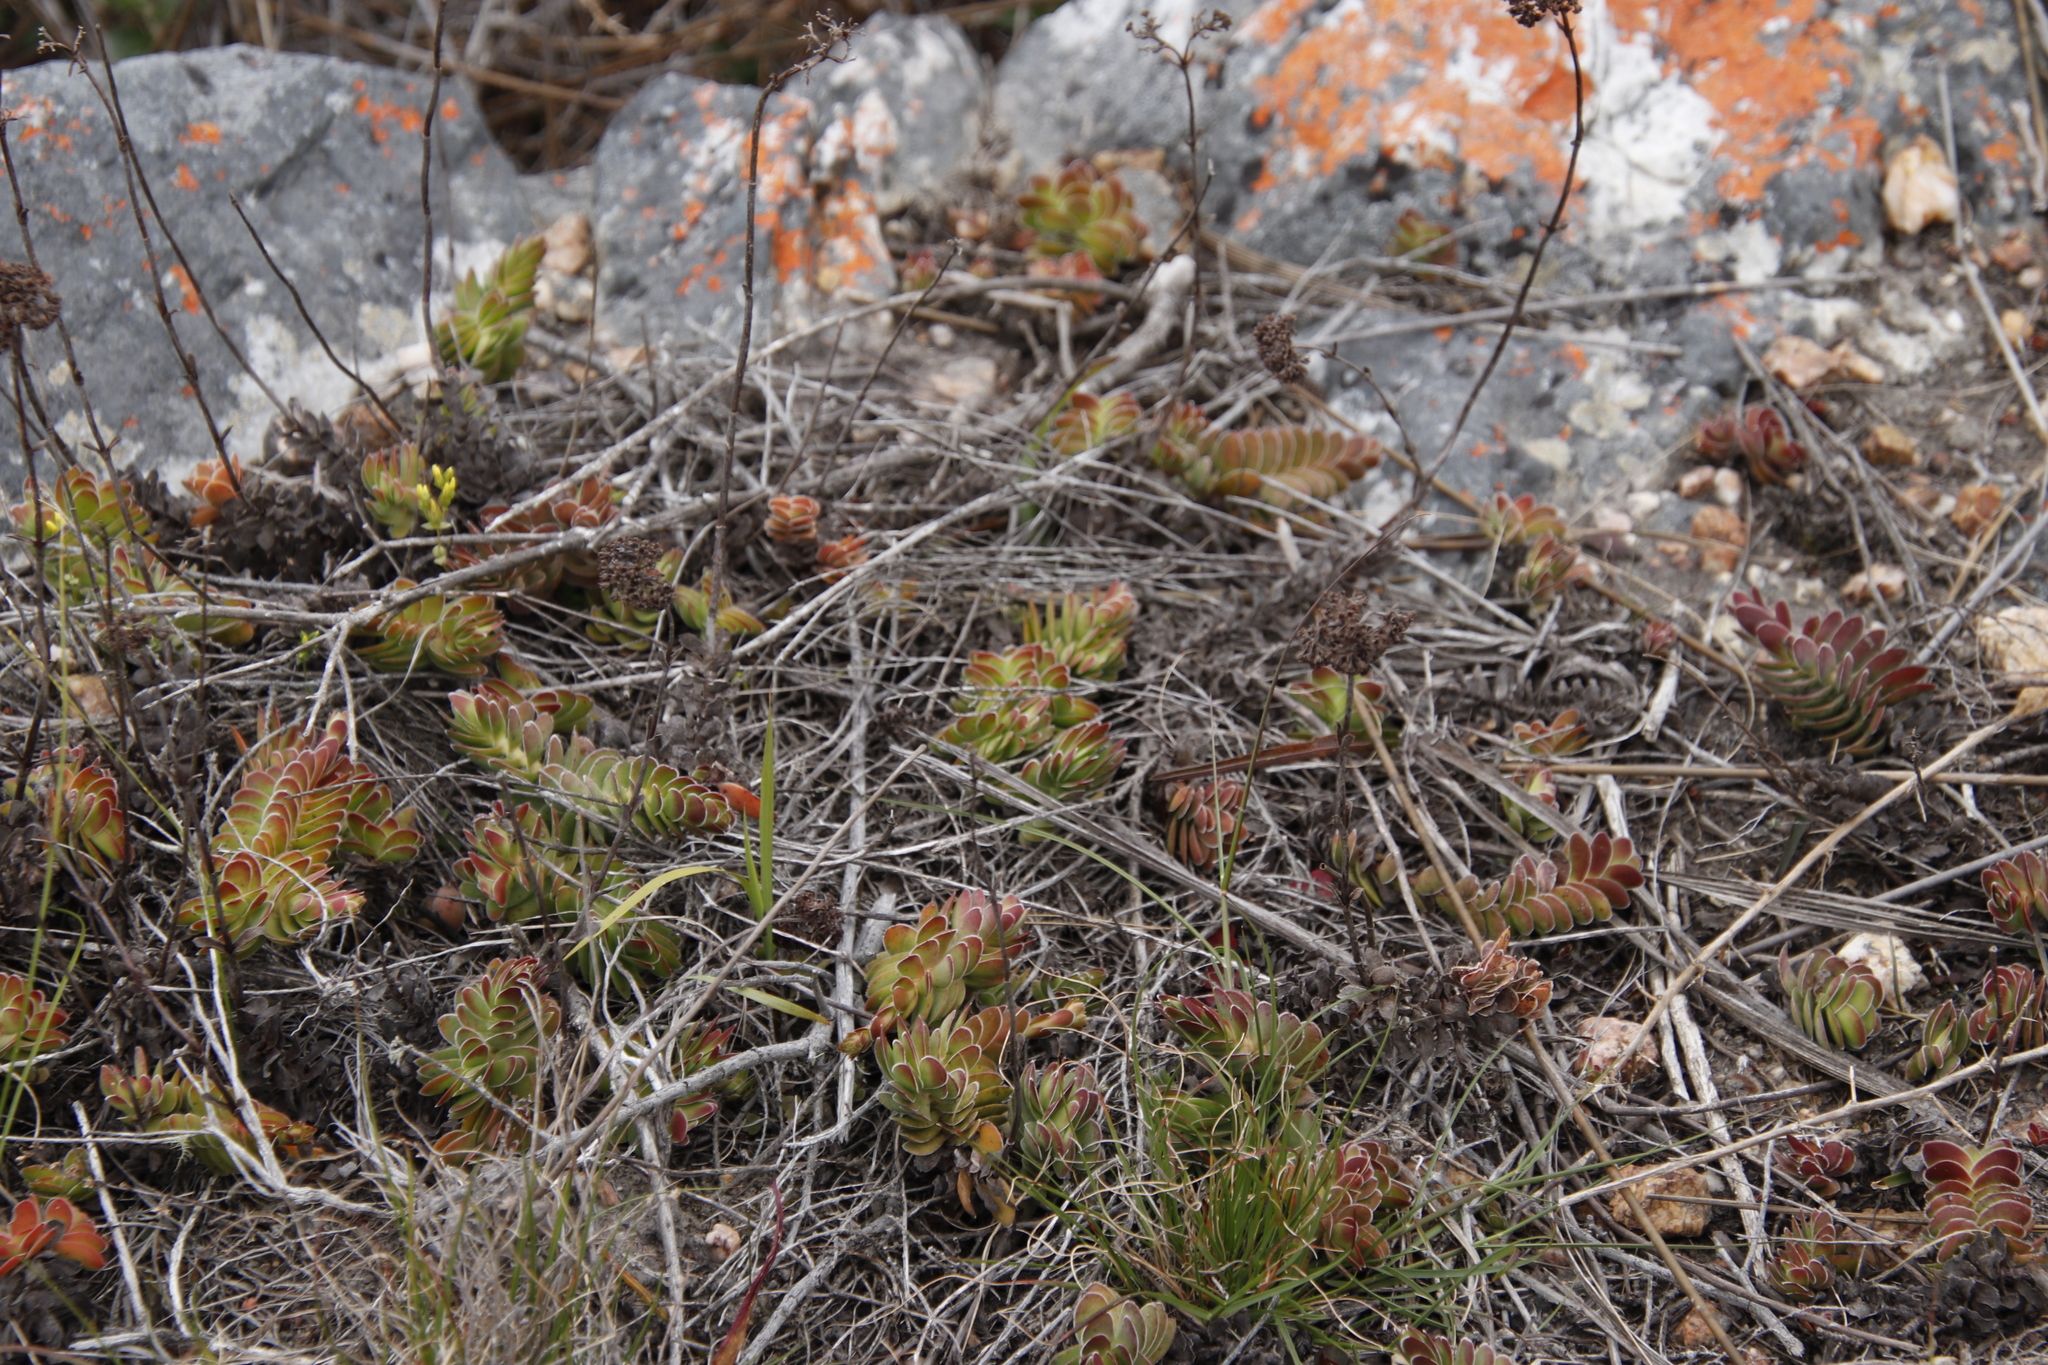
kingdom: Plantae
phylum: Tracheophyta
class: Magnoliopsida
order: Saxifragales
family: Crassulaceae
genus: Crassula
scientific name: Crassula ciliata
